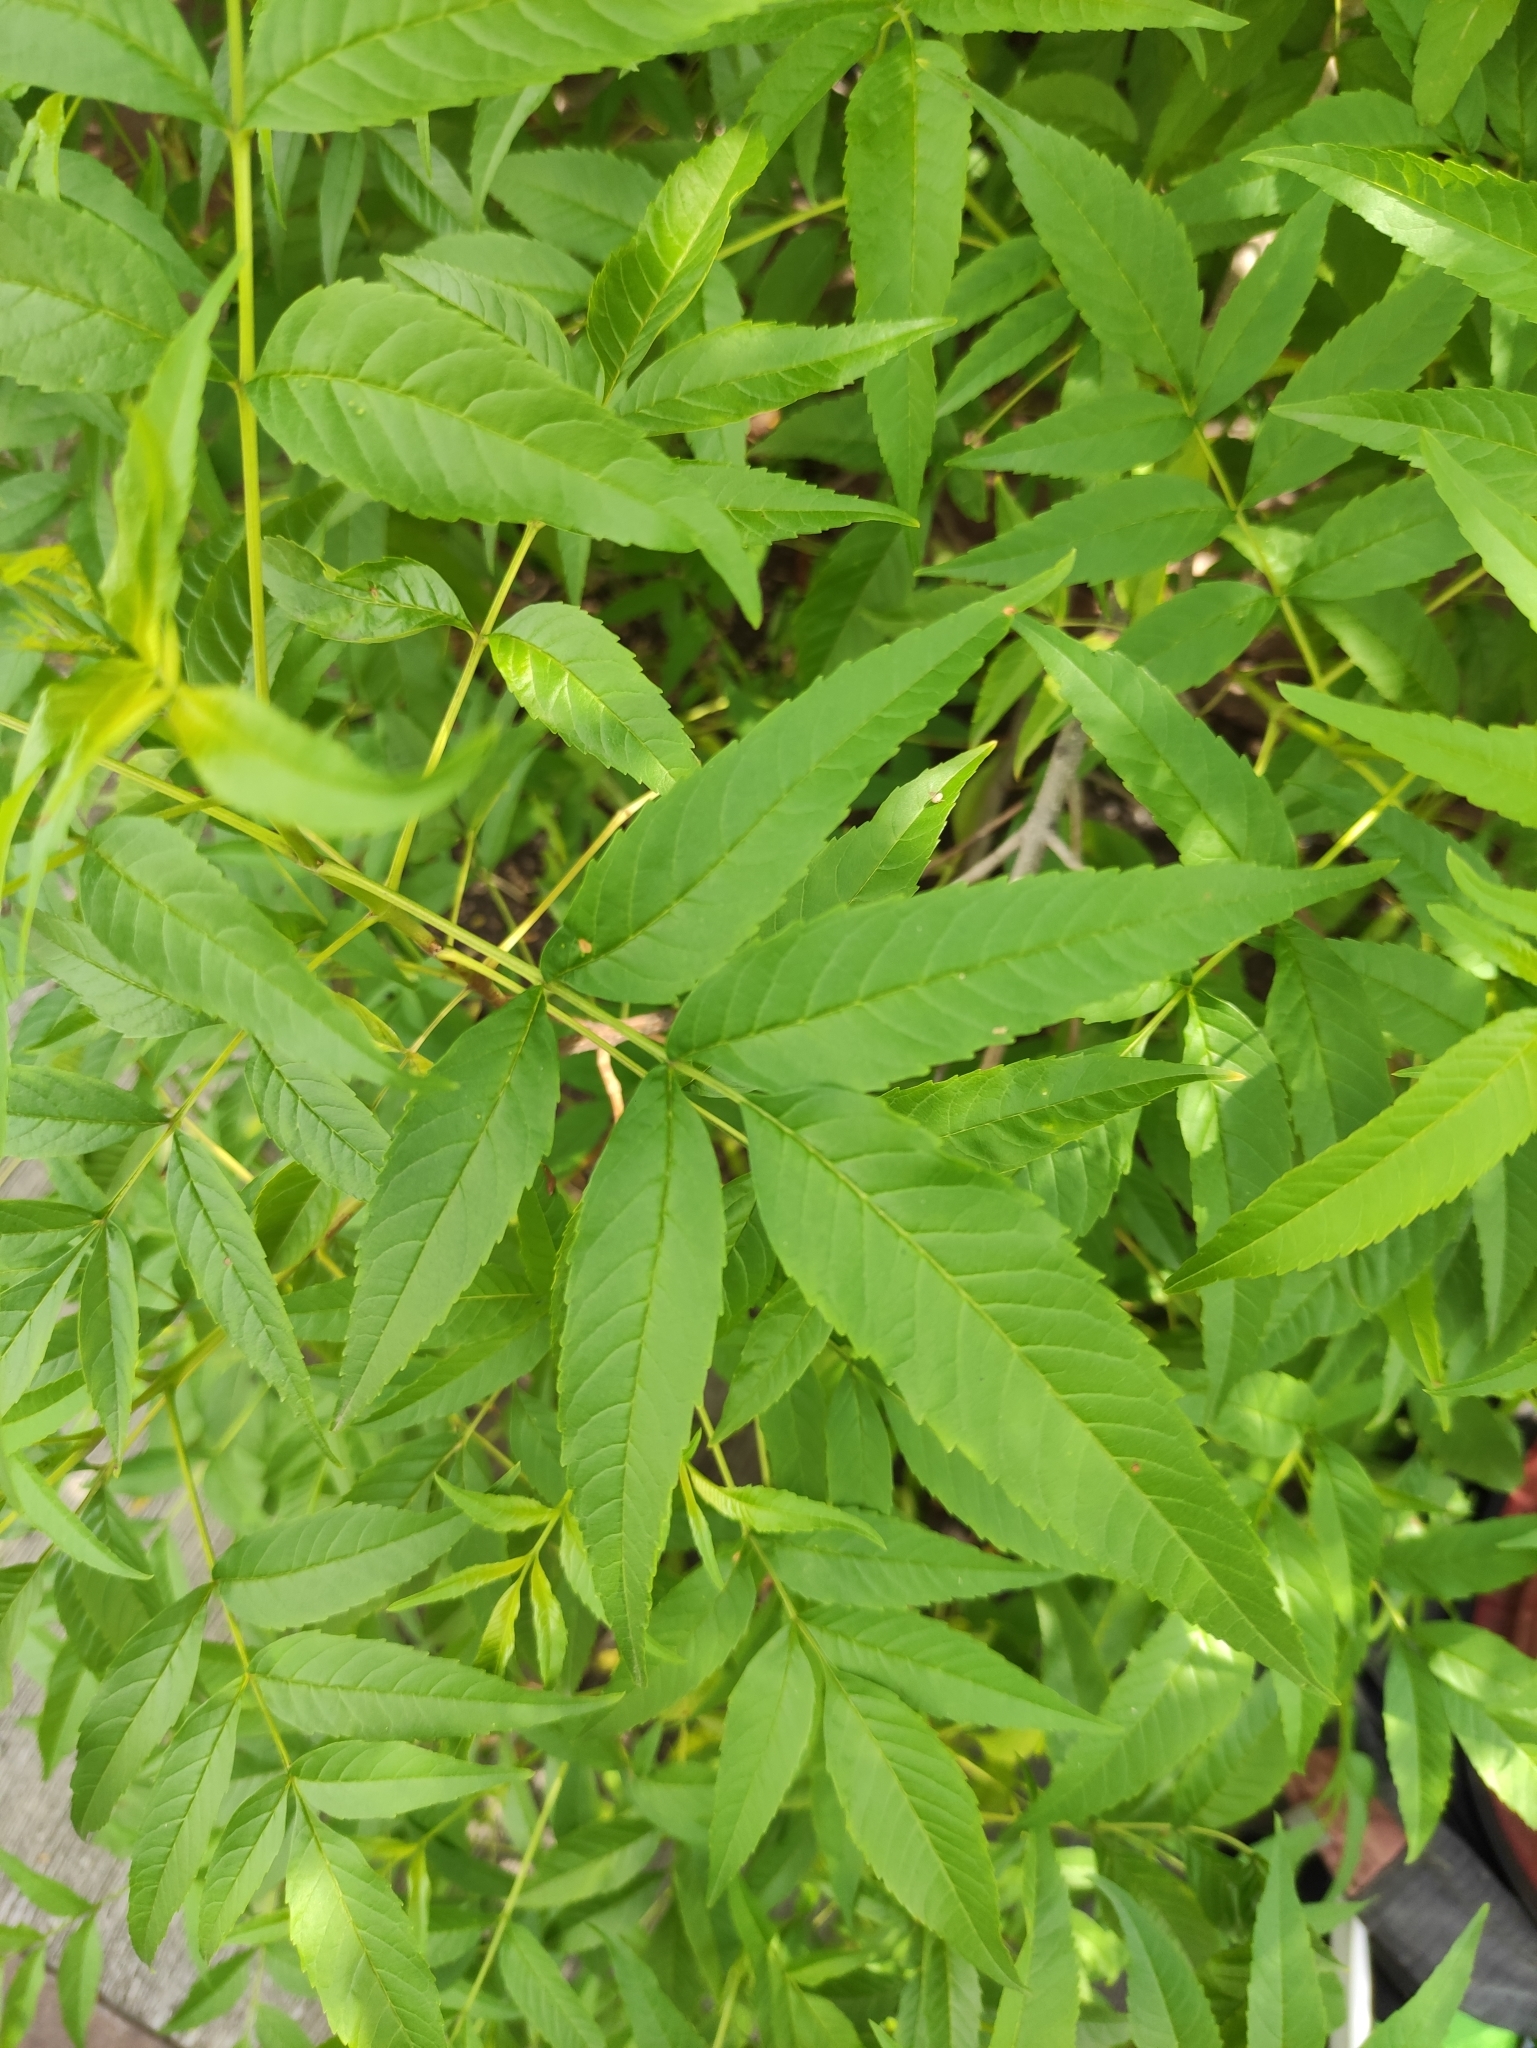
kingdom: Plantae
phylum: Tracheophyta
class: Magnoliopsida
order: Lamiales
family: Bignoniaceae
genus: Tecoma
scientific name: Tecoma stans
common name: Yellow trumpetbush
